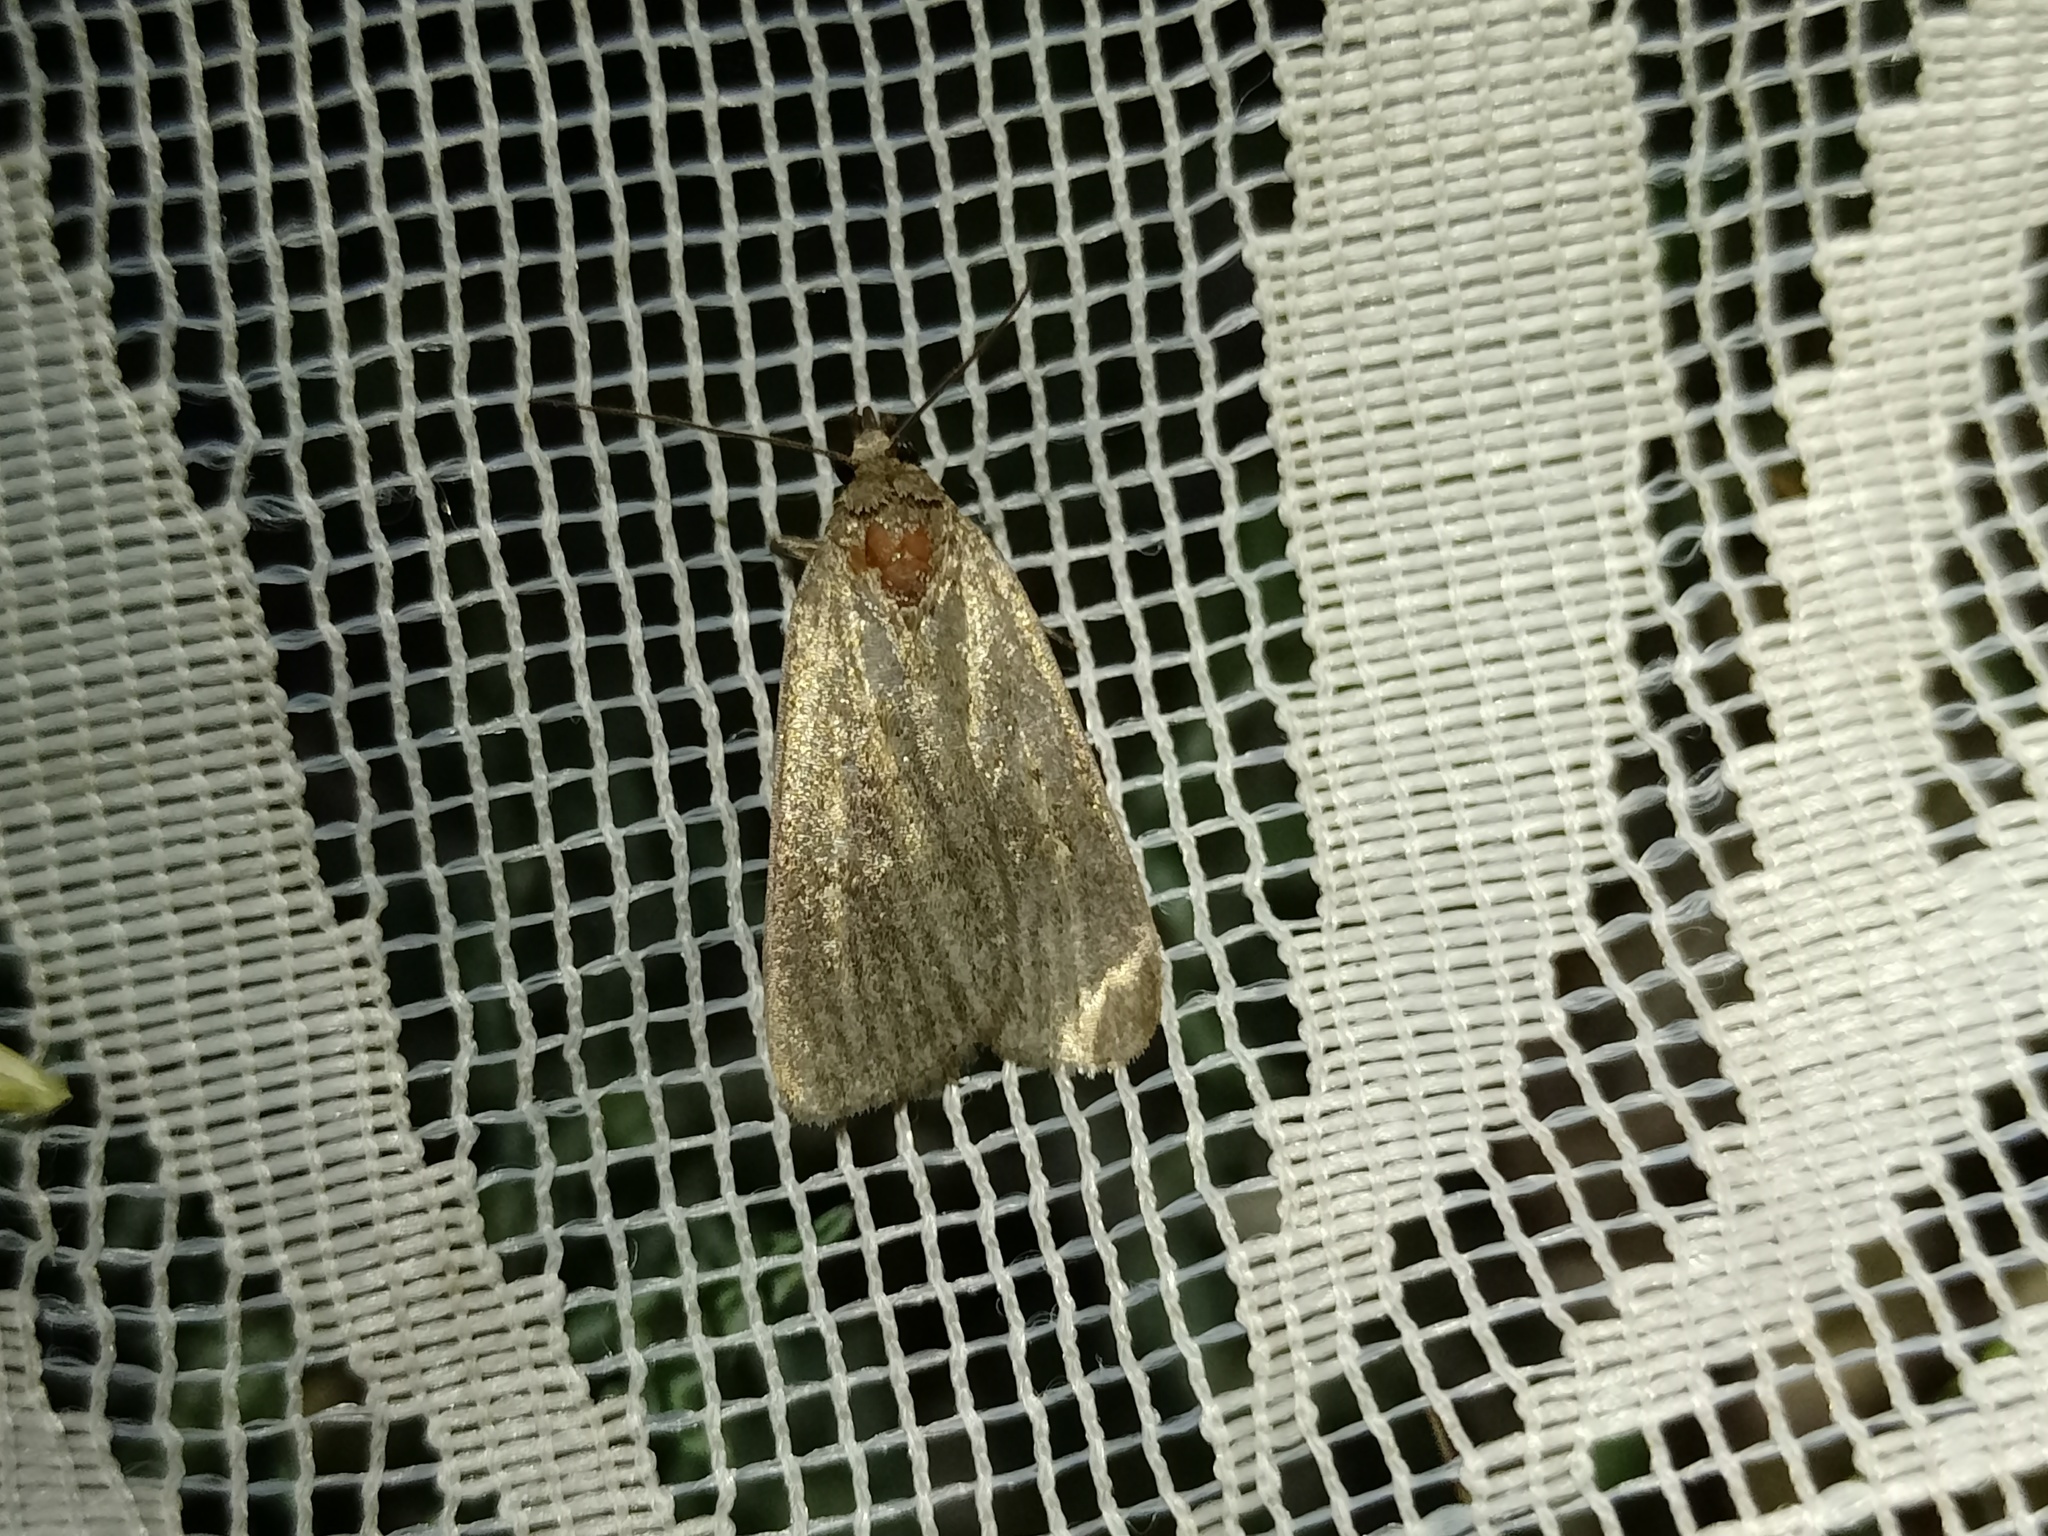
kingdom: Animalia
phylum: Arthropoda
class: Insecta
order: Lepidoptera
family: Noctuidae
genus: Athetis
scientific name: Athetis lepigone
